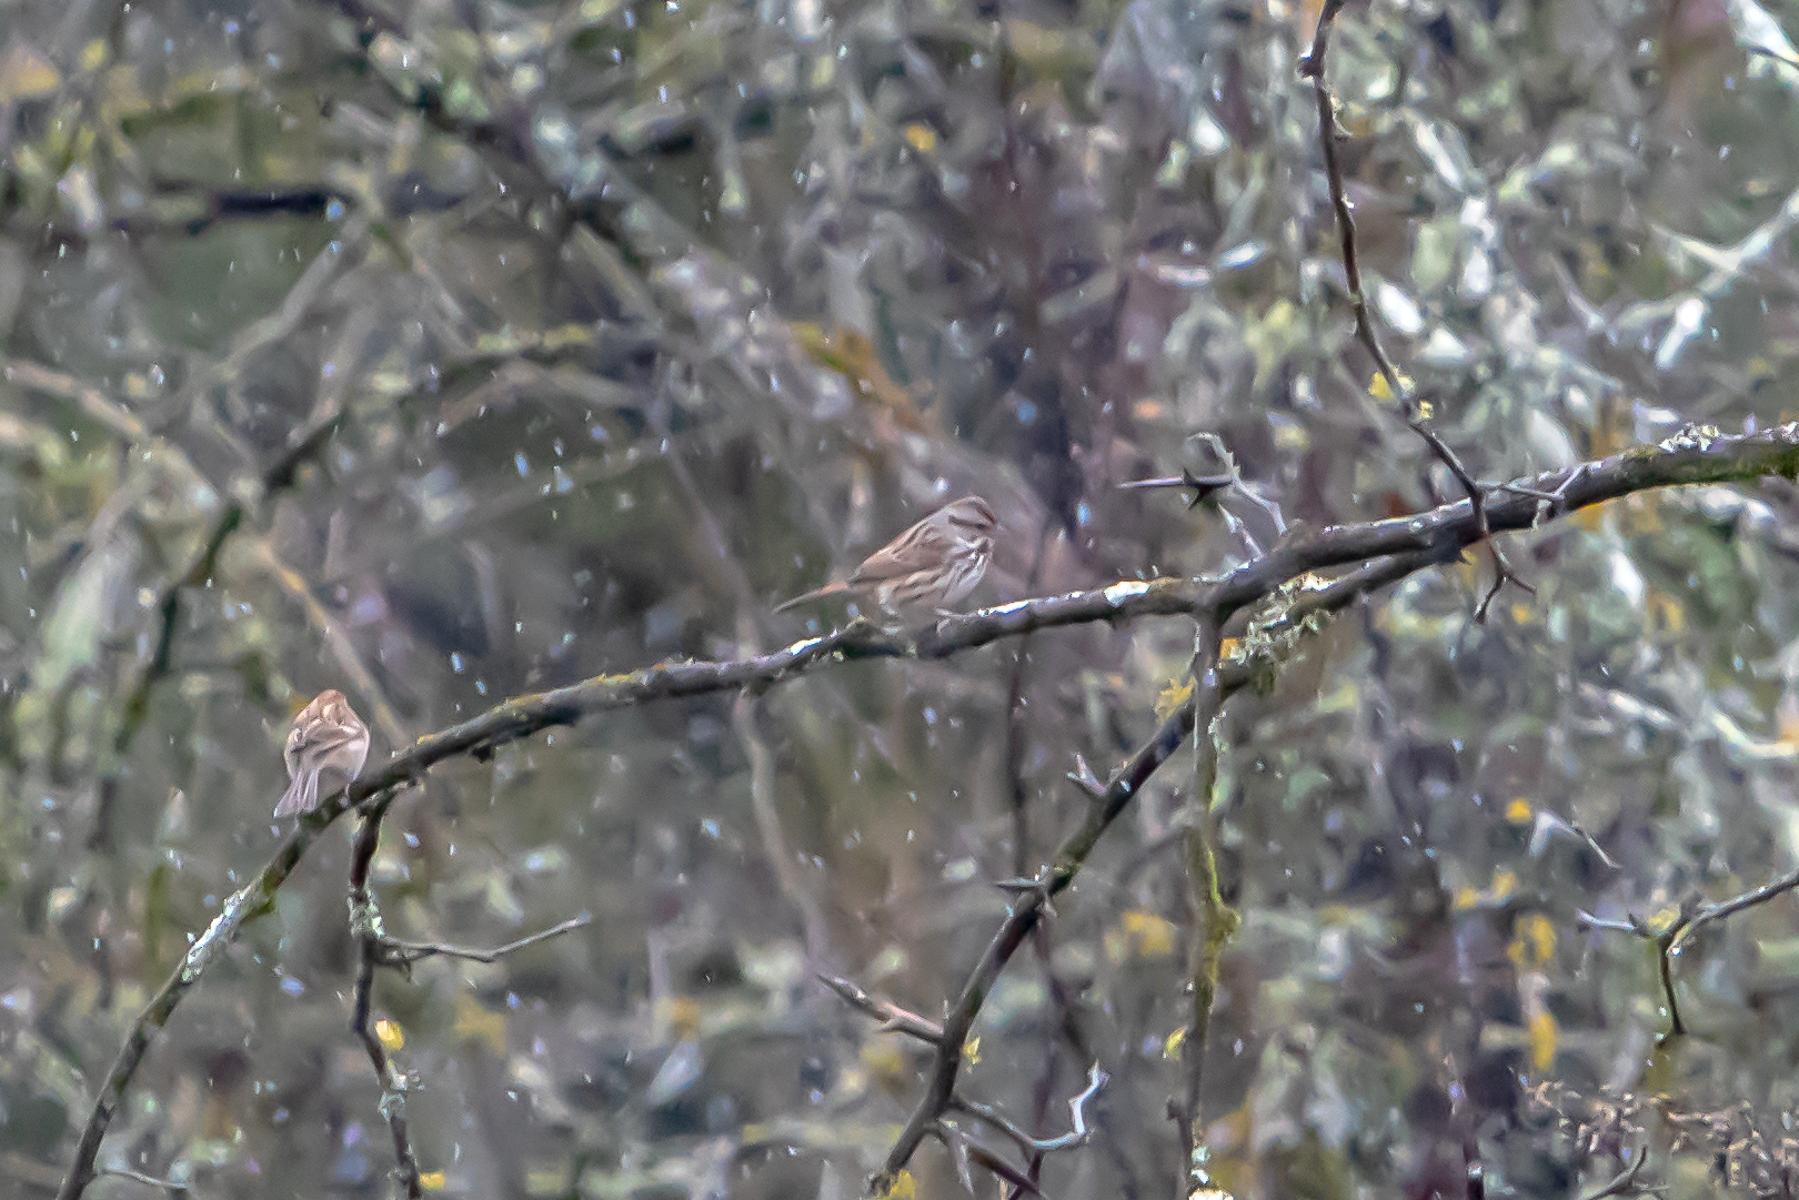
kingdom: Animalia
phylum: Chordata
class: Aves
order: Passeriformes
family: Passerellidae
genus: Melospiza
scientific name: Melospiza melodia
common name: Song sparrow
